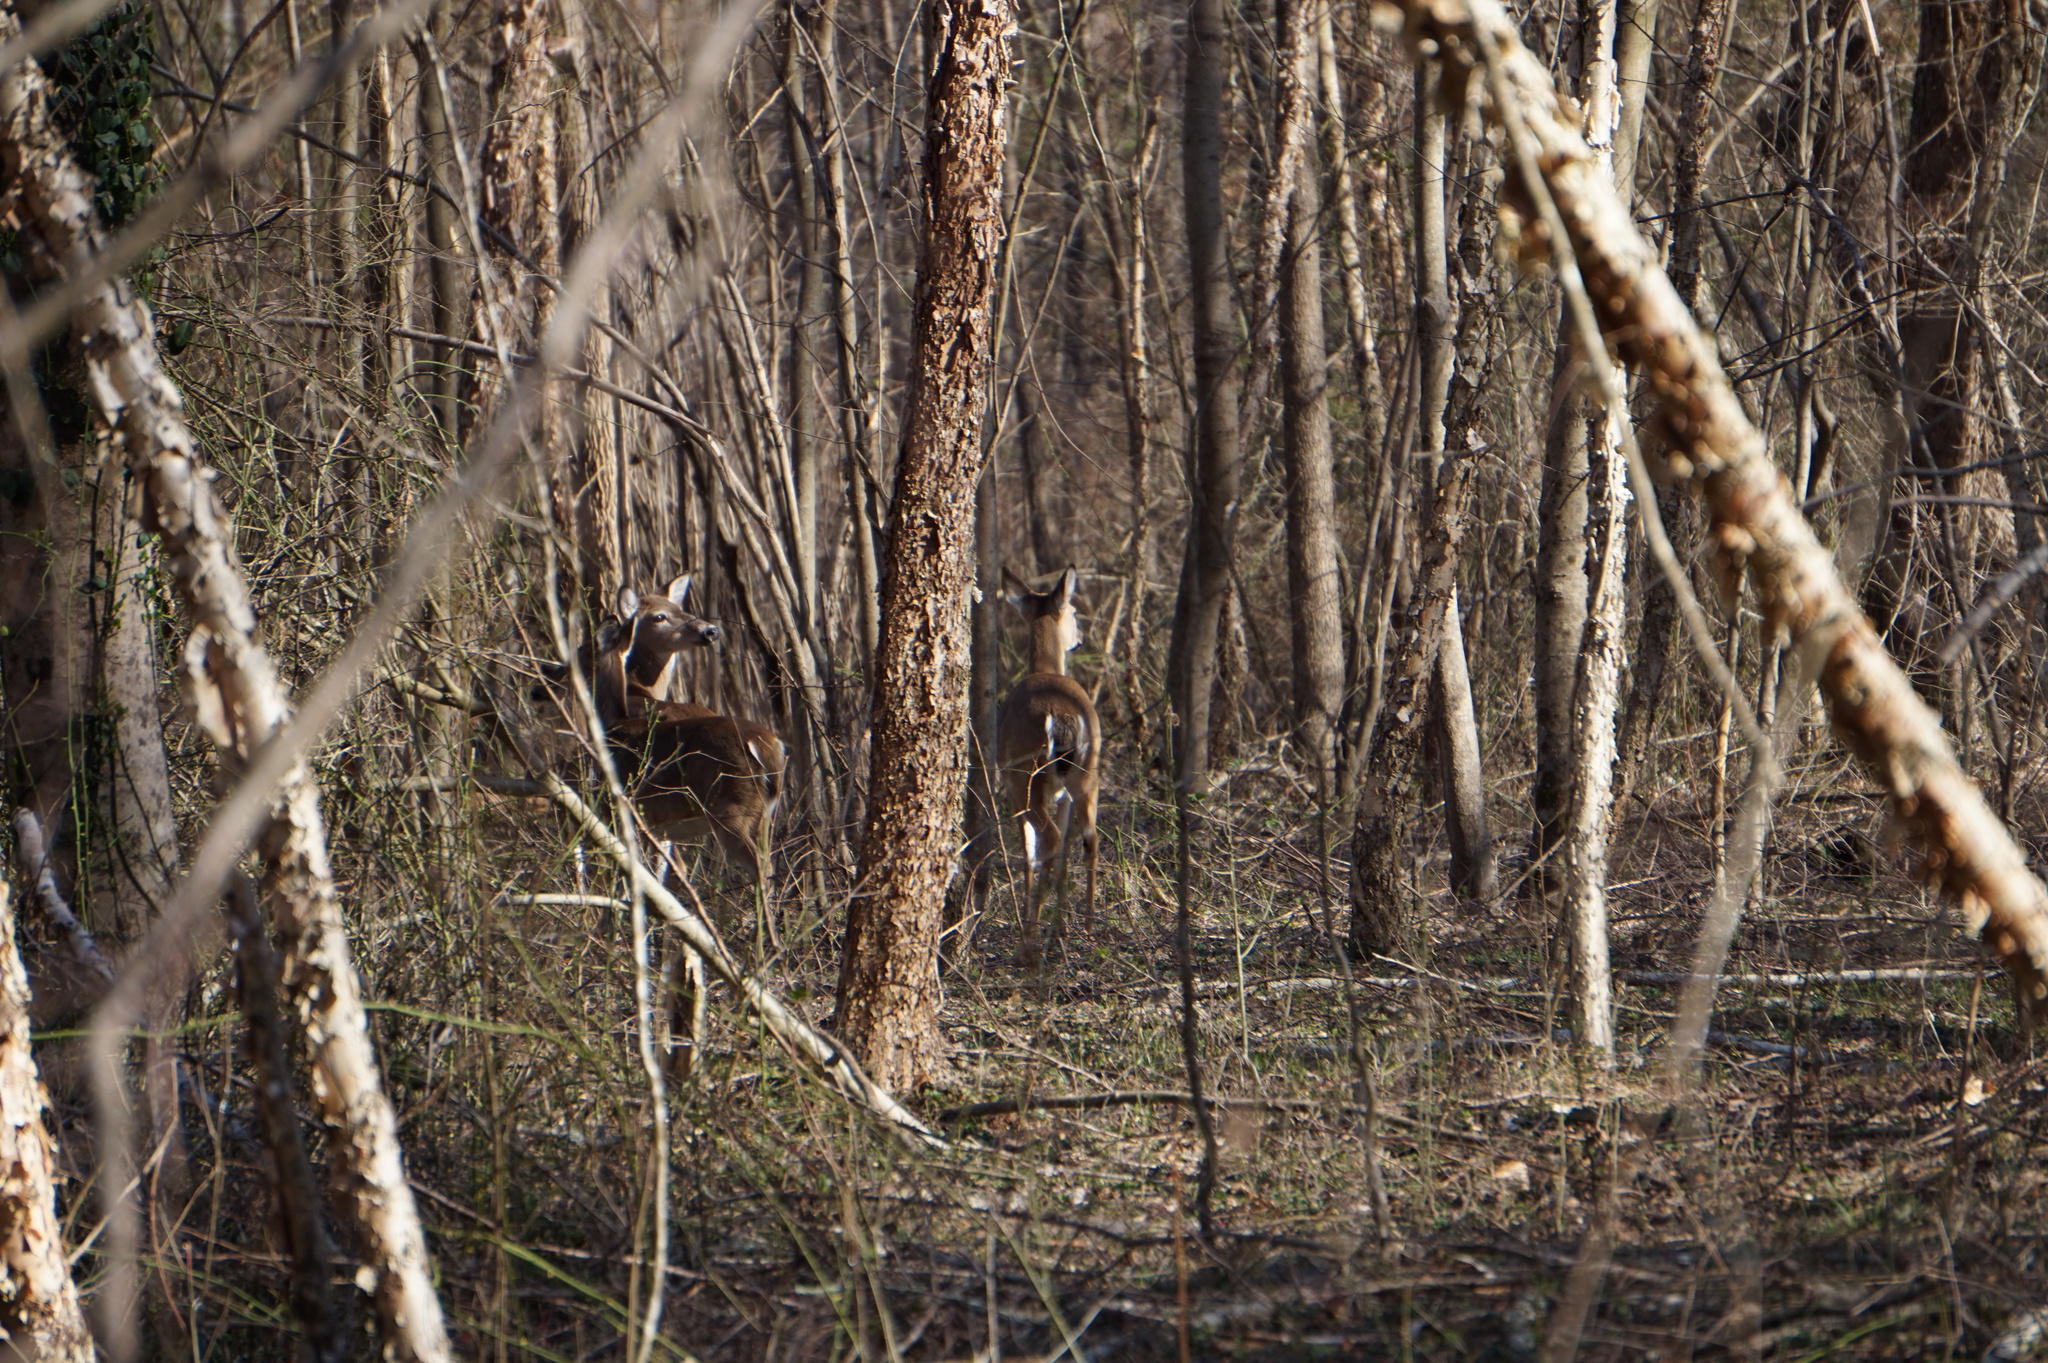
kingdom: Animalia
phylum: Chordata
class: Mammalia
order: Artiodactyla
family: Cervidae
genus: Odocoileus
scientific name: Odocoileus virginianus
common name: White-tailed deer
